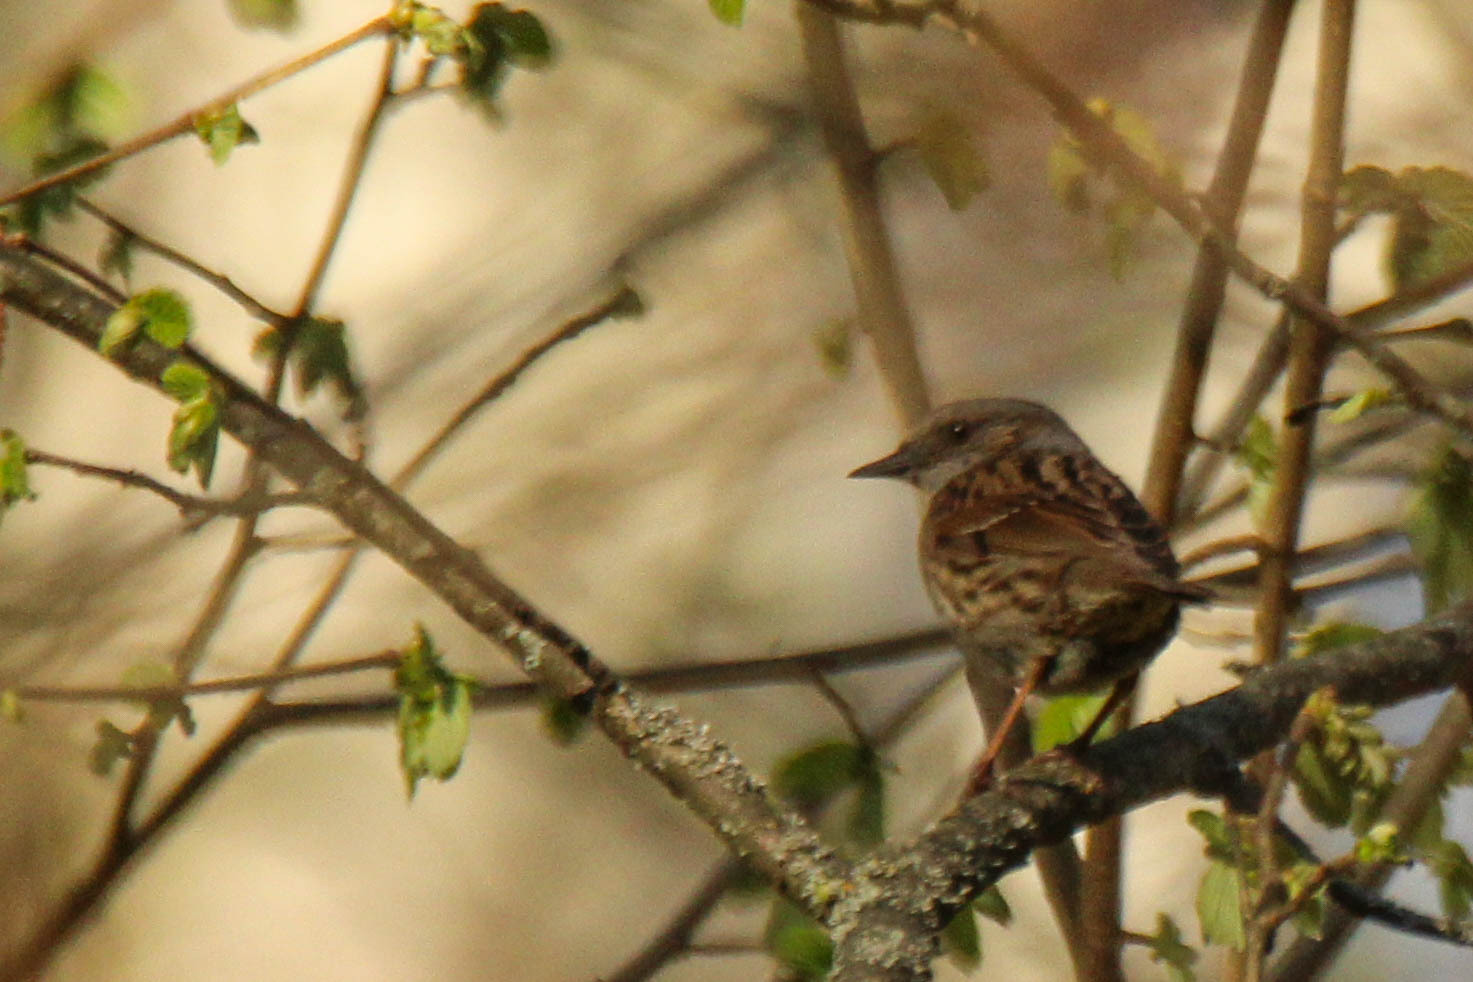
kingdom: Animalia
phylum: Chordata
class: Aves
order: Passeriformes
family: Prunellidae
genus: Prunella
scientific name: Prunella modularis
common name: Dunnock
